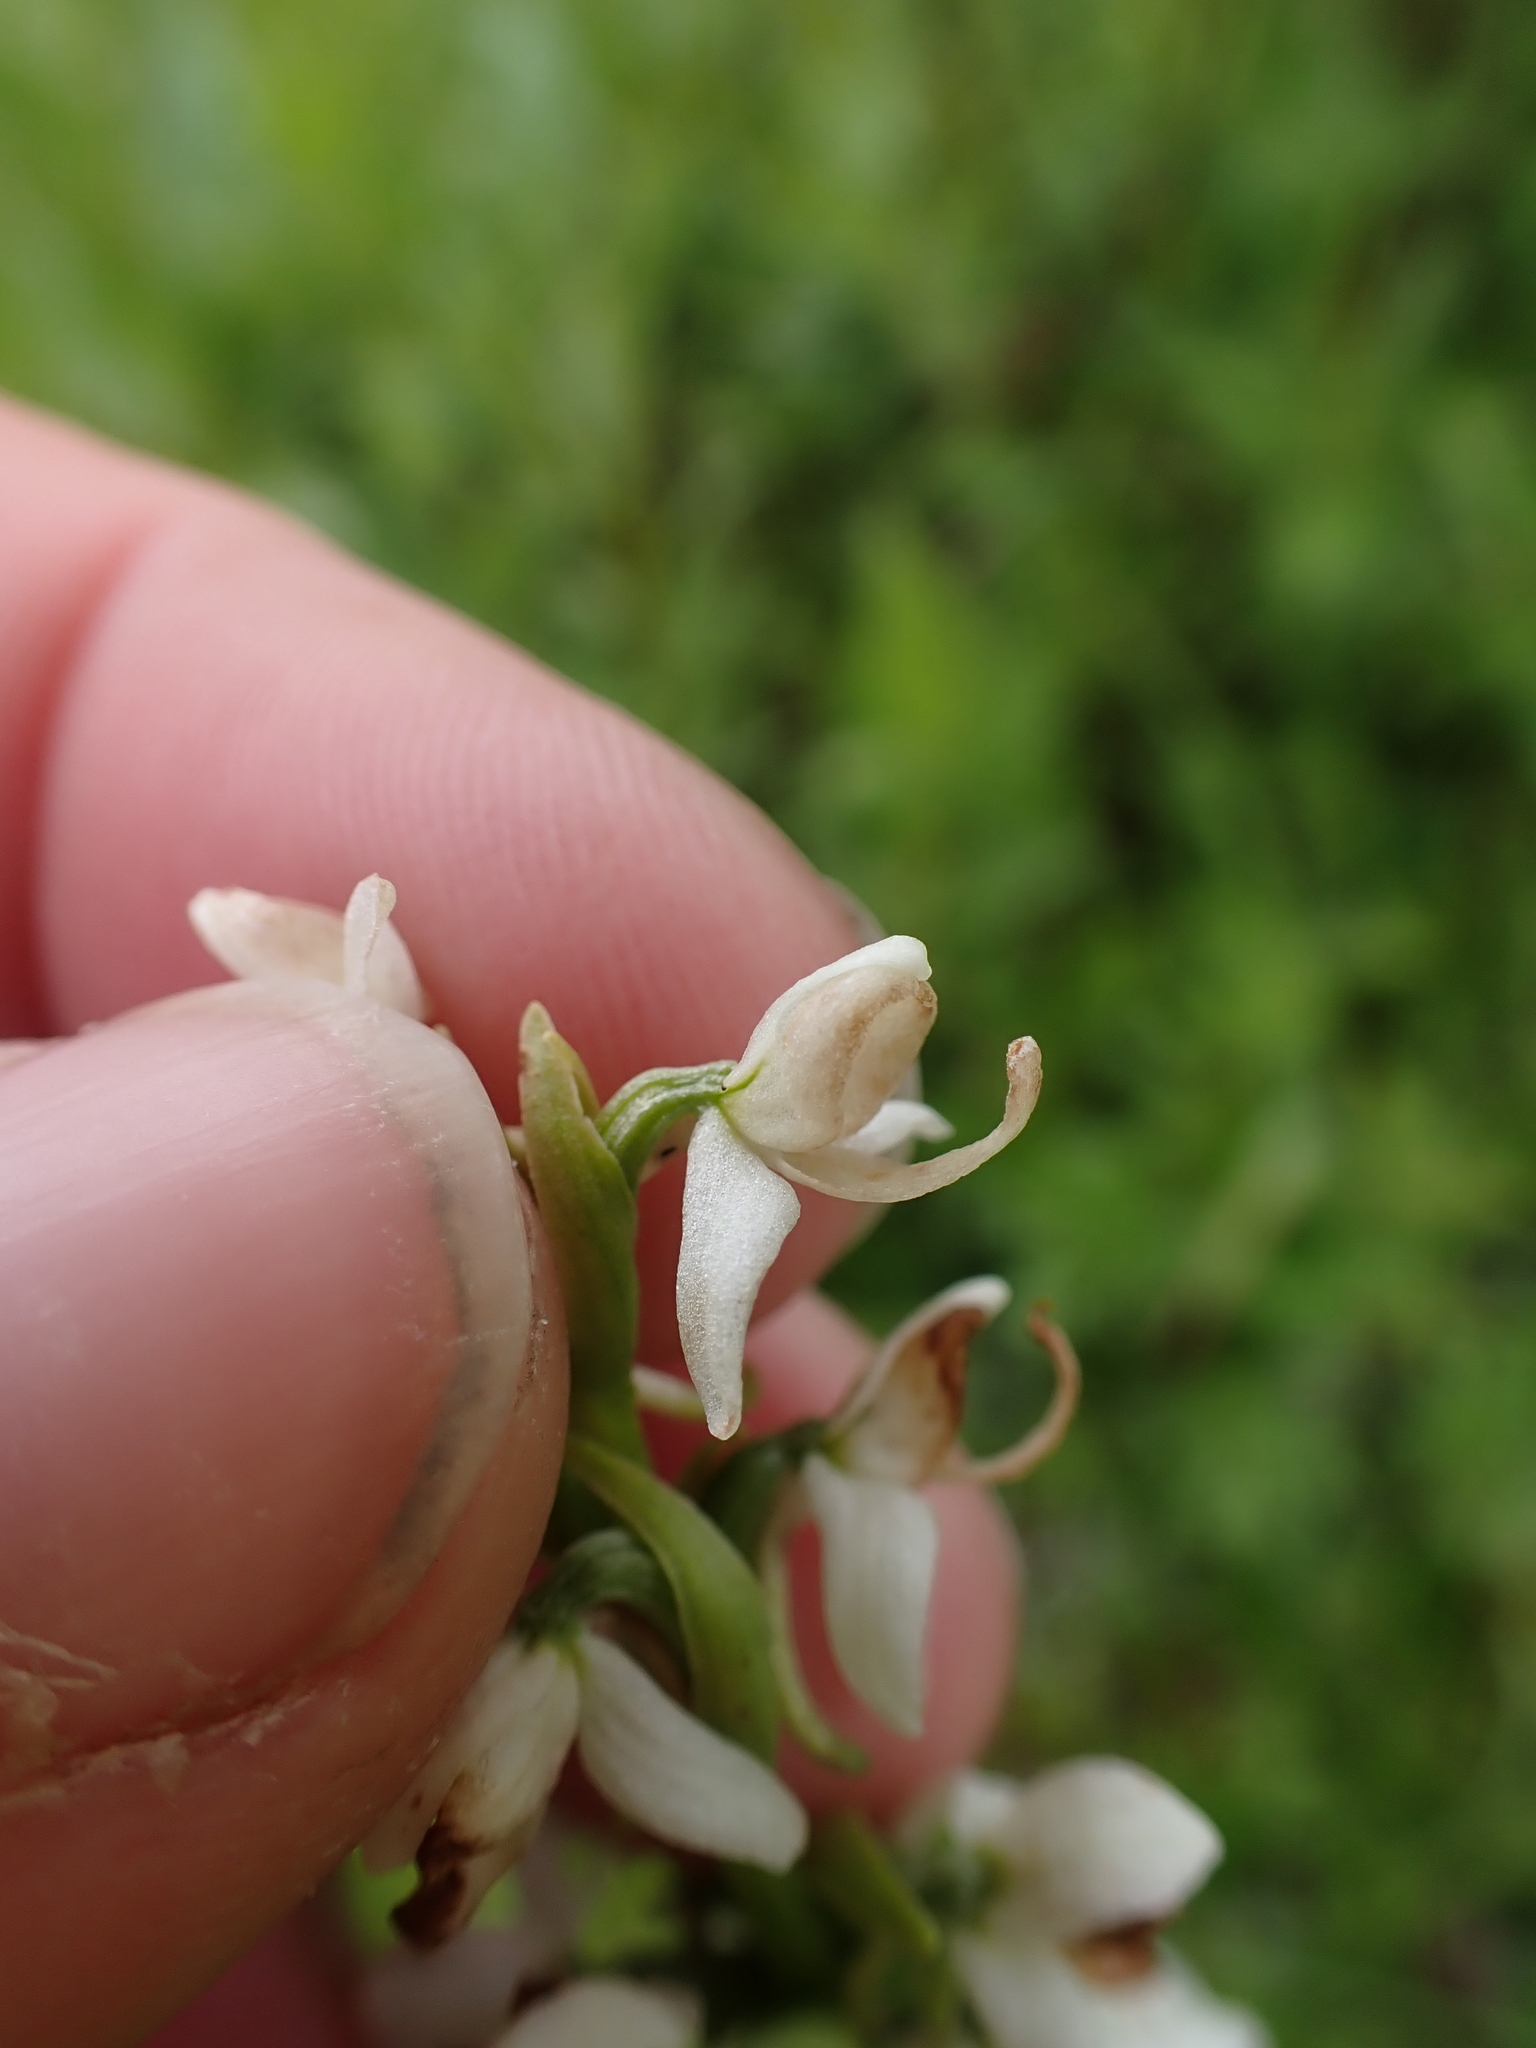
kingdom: Plantae
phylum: Tracheophyta
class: Liliopsida
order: Asparagales
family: Orchidaceae
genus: Platanthera
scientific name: Platanthera dilatata
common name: Bog candles
